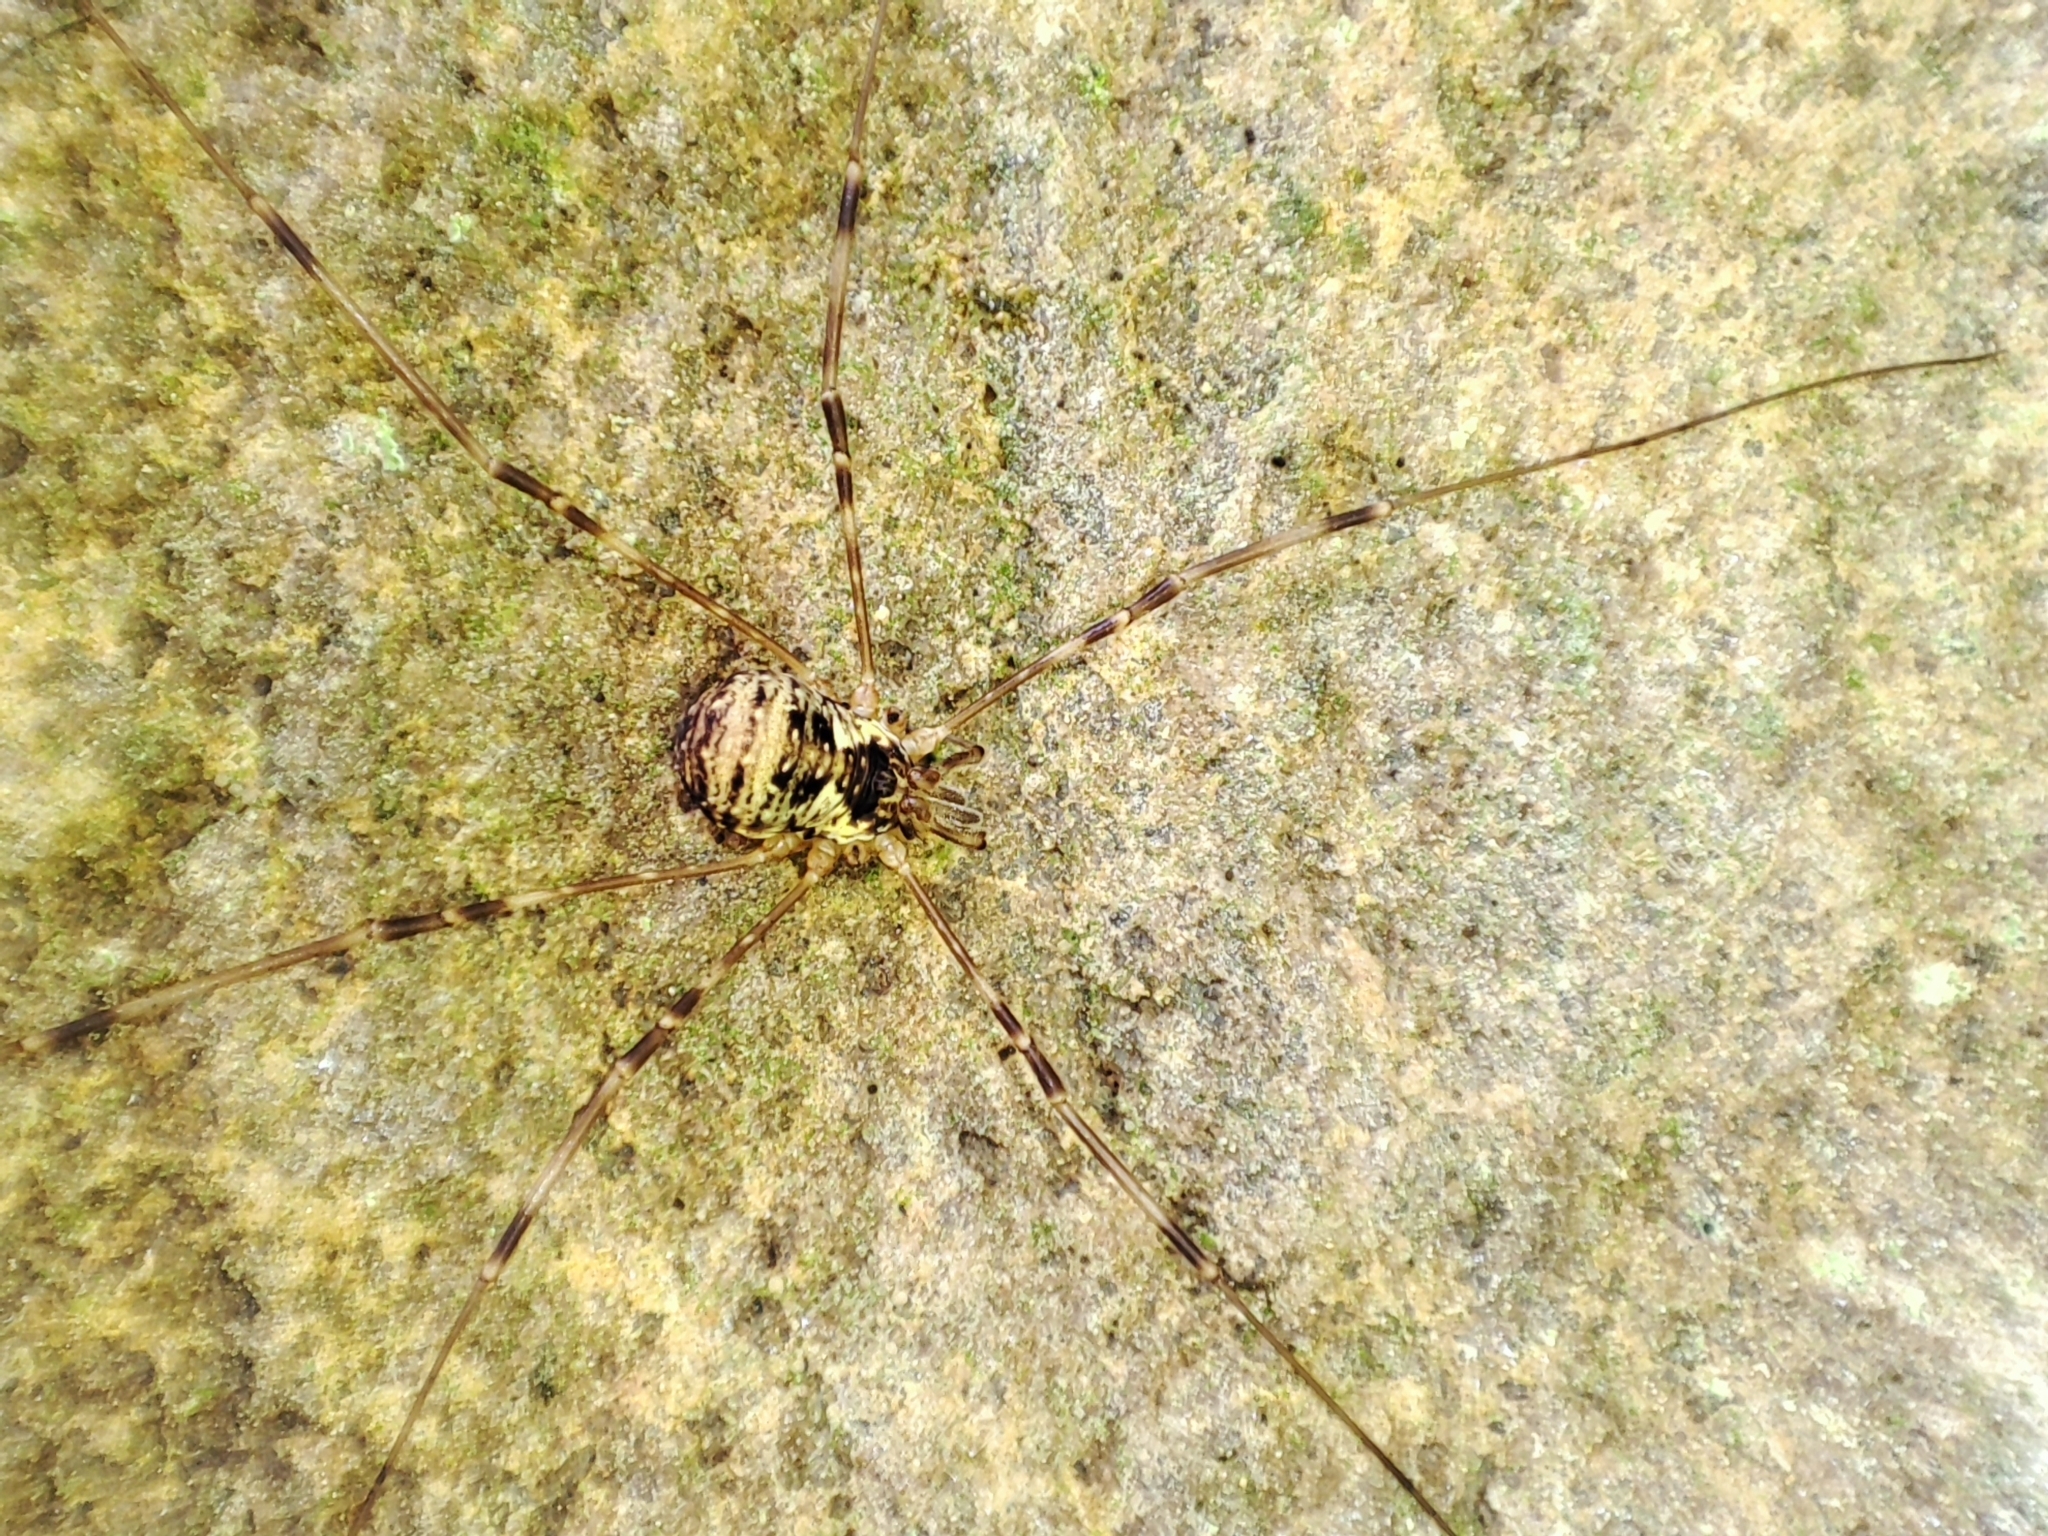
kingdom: Animalia
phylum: Arthropoda
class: Arachnida
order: Opiliones
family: Phalangiidae
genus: Dicranopalpus
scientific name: Dicranopalpus gasteinensis
